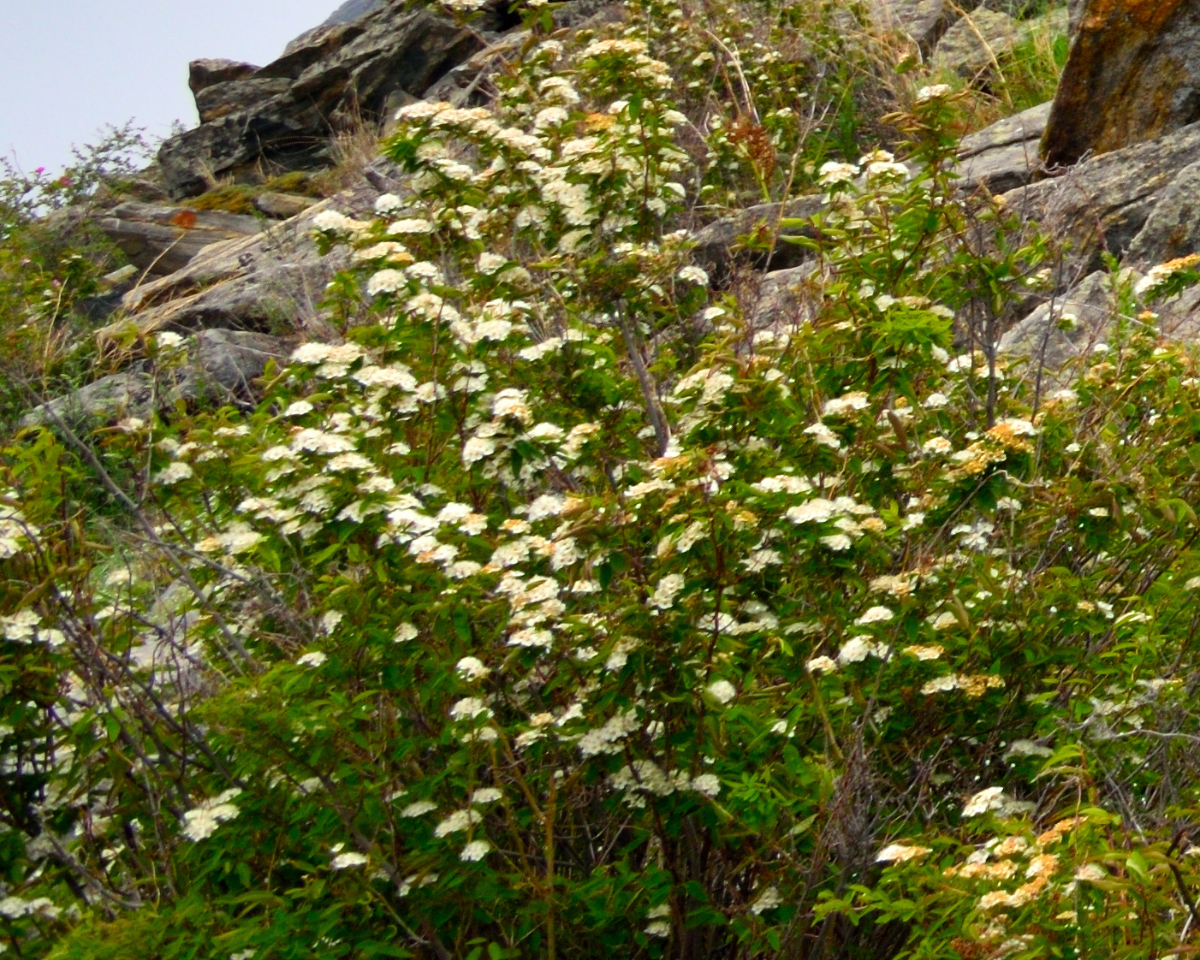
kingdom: Plantae
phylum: Tracheophyta
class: Magnoliopsida
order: Rosales
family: Rosaceae
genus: Spiraea
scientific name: Spiraea media
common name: Russian spiraea
